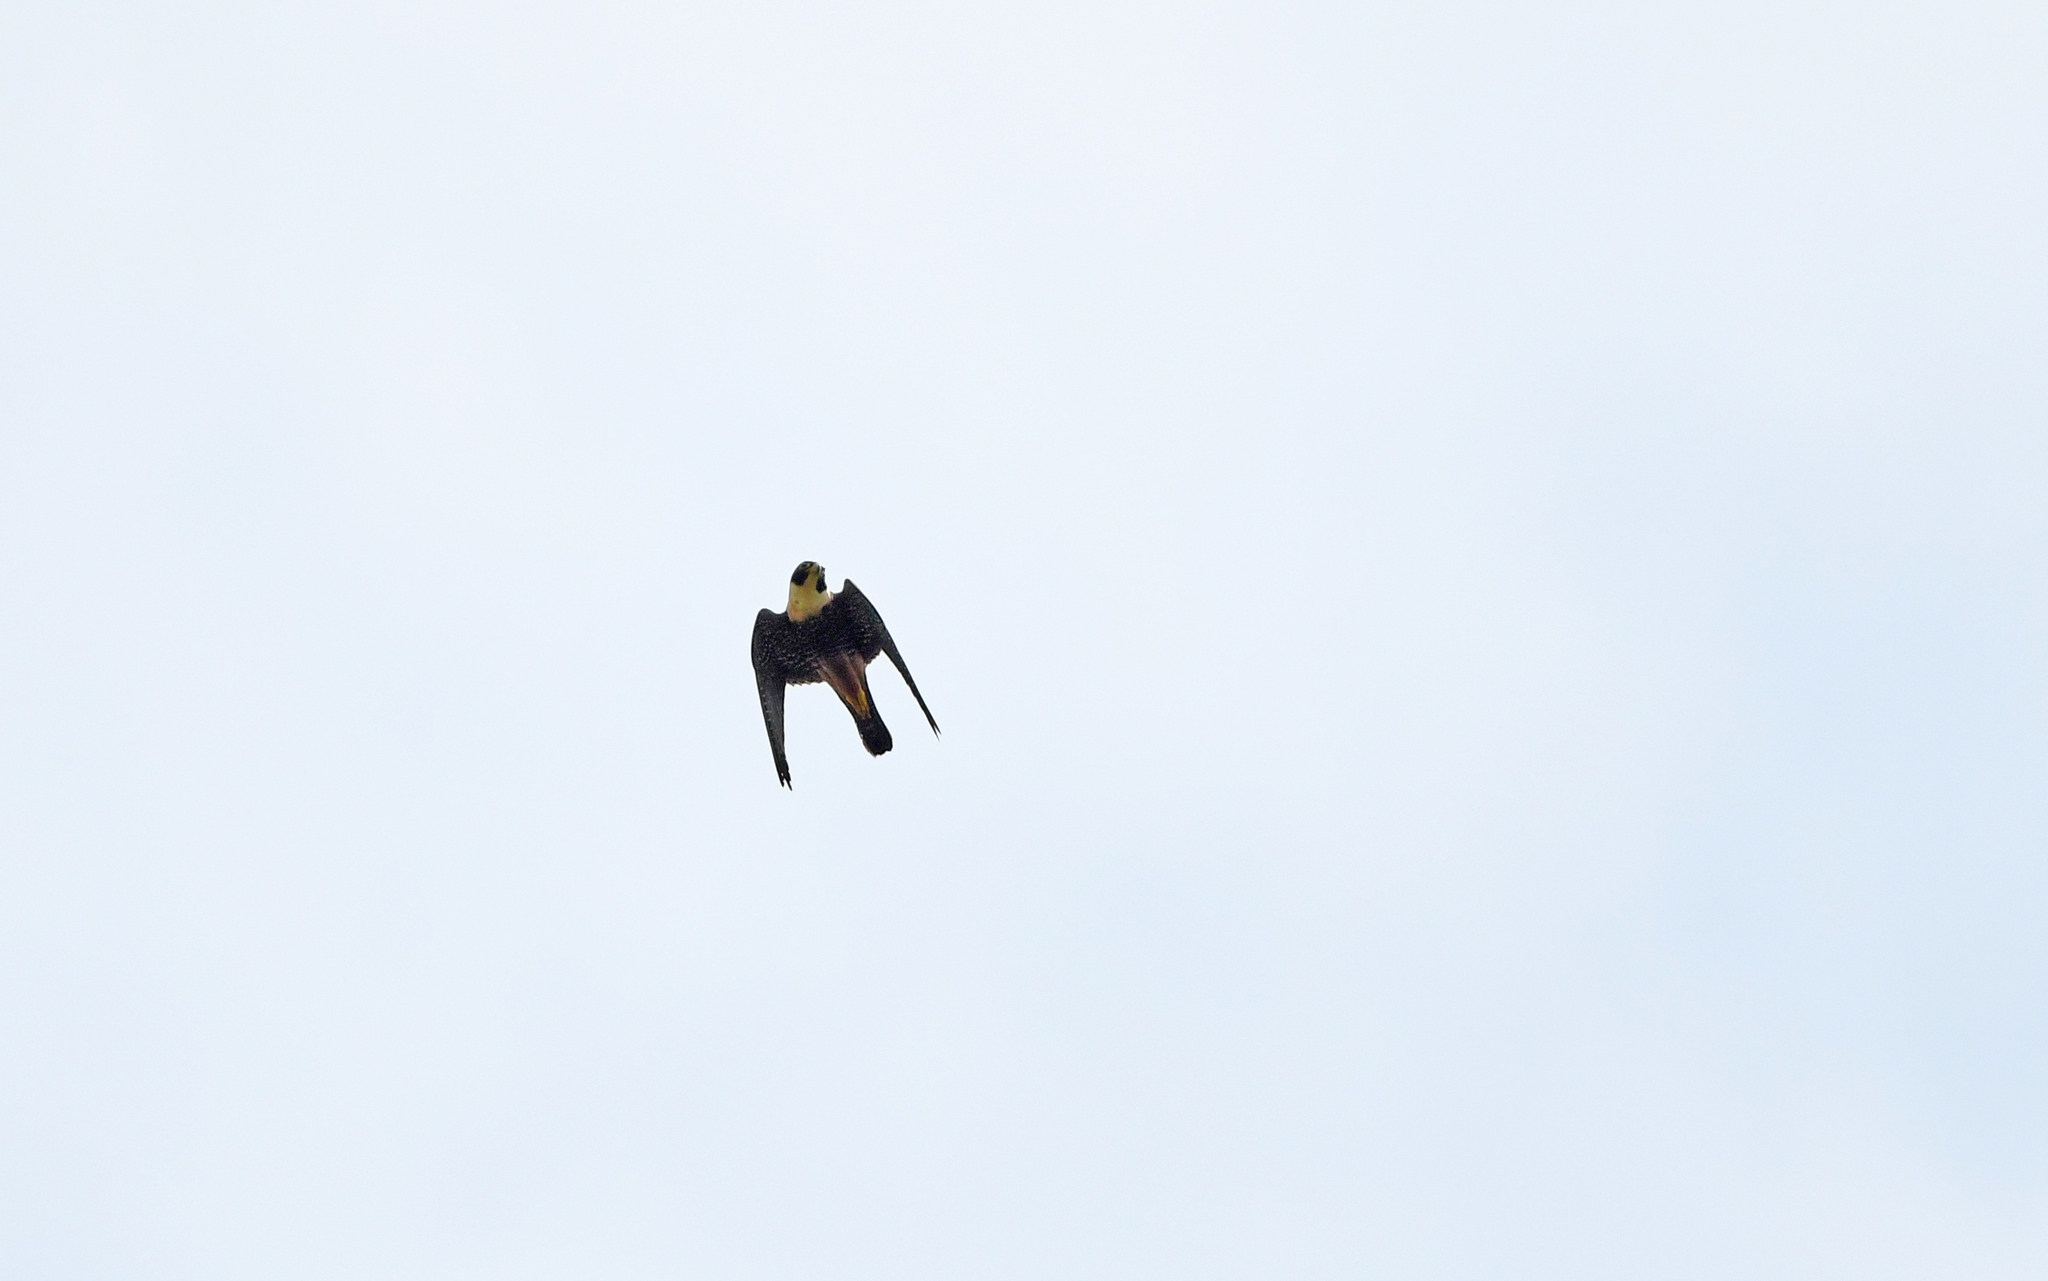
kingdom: Animalia
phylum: Chordata
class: Aves
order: Falconiformes
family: Falconidae
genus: Falco
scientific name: Falco rufigularis
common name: Bat falcon
